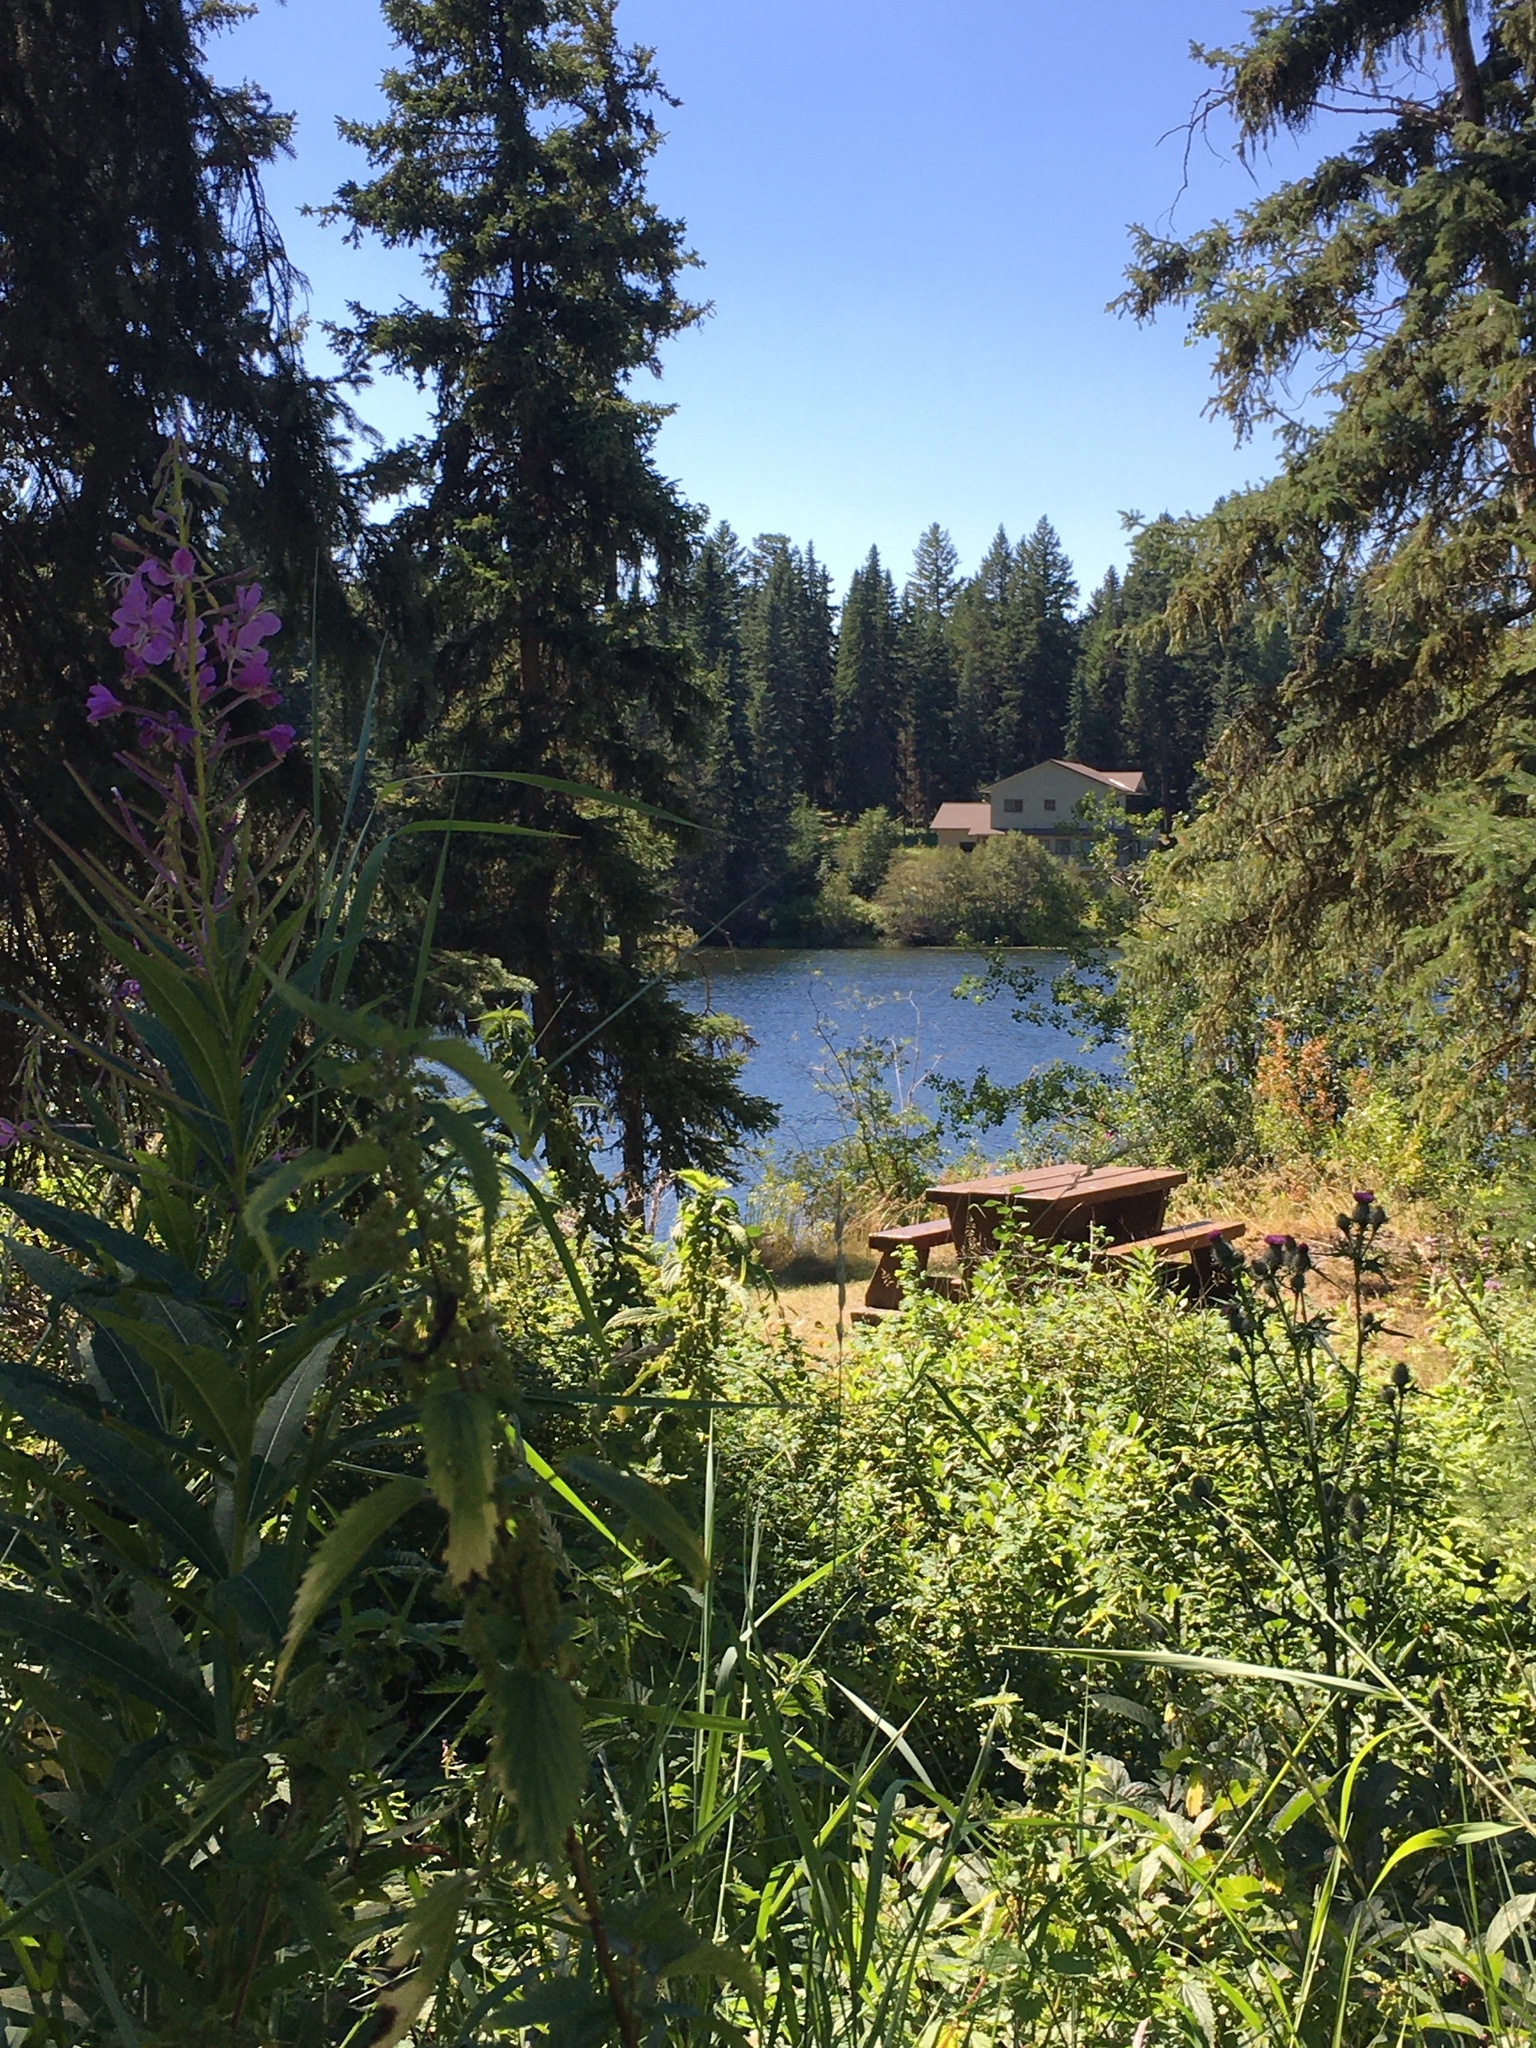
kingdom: Plantae
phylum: Tracheophyta
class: Magnoliopsida
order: Myrtales
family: Onagraceae
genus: Chamaenerion
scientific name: Chamaenerion angustifolium
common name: Fireweed
